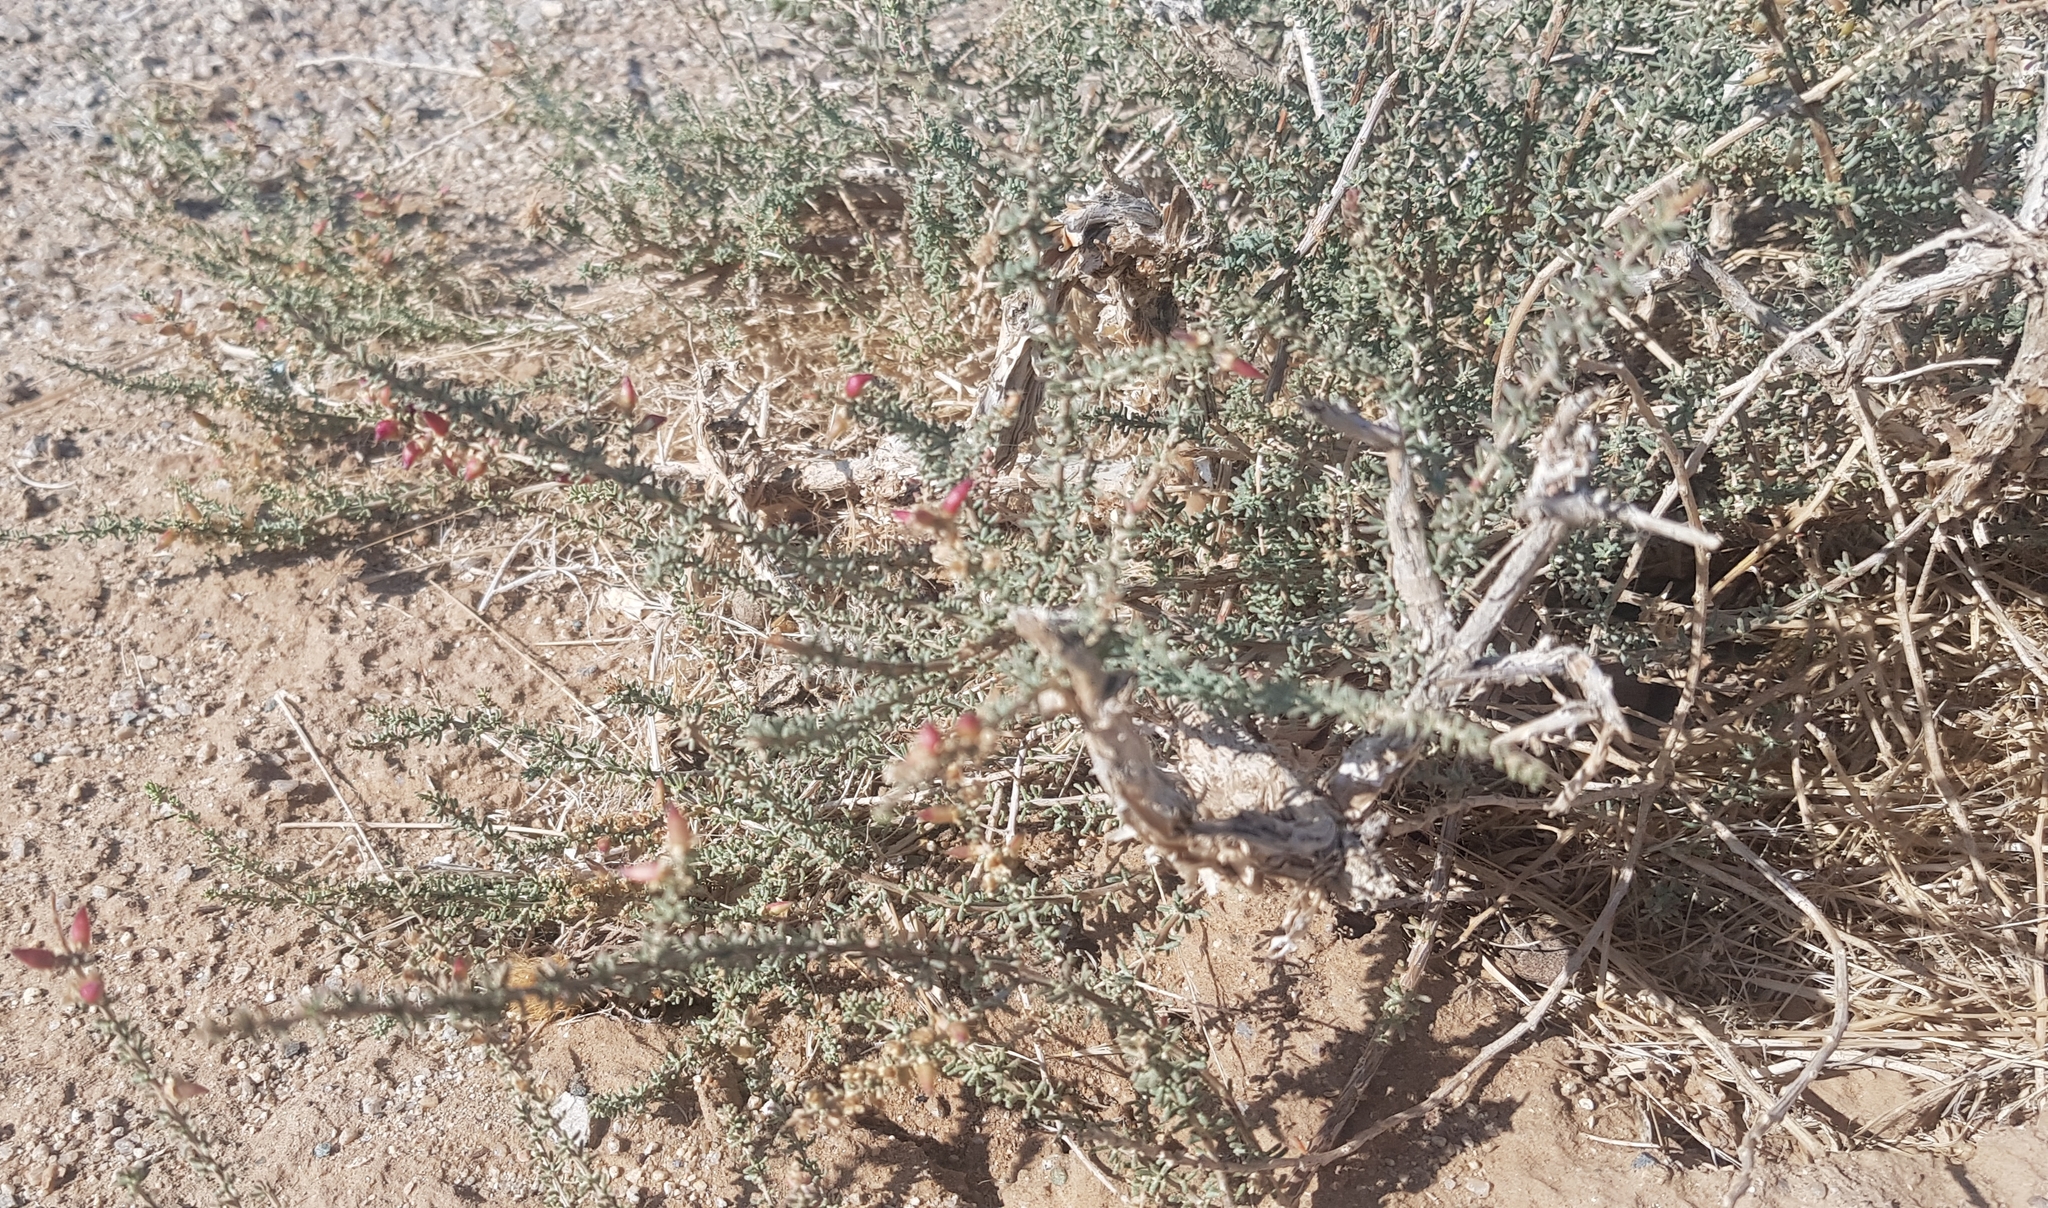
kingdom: Plantae
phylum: Tracheophyta
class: Magnoliopsida
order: Caryophyllales
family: Tamaricaceae
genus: Reaumuria
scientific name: Reaumuria soongorica
